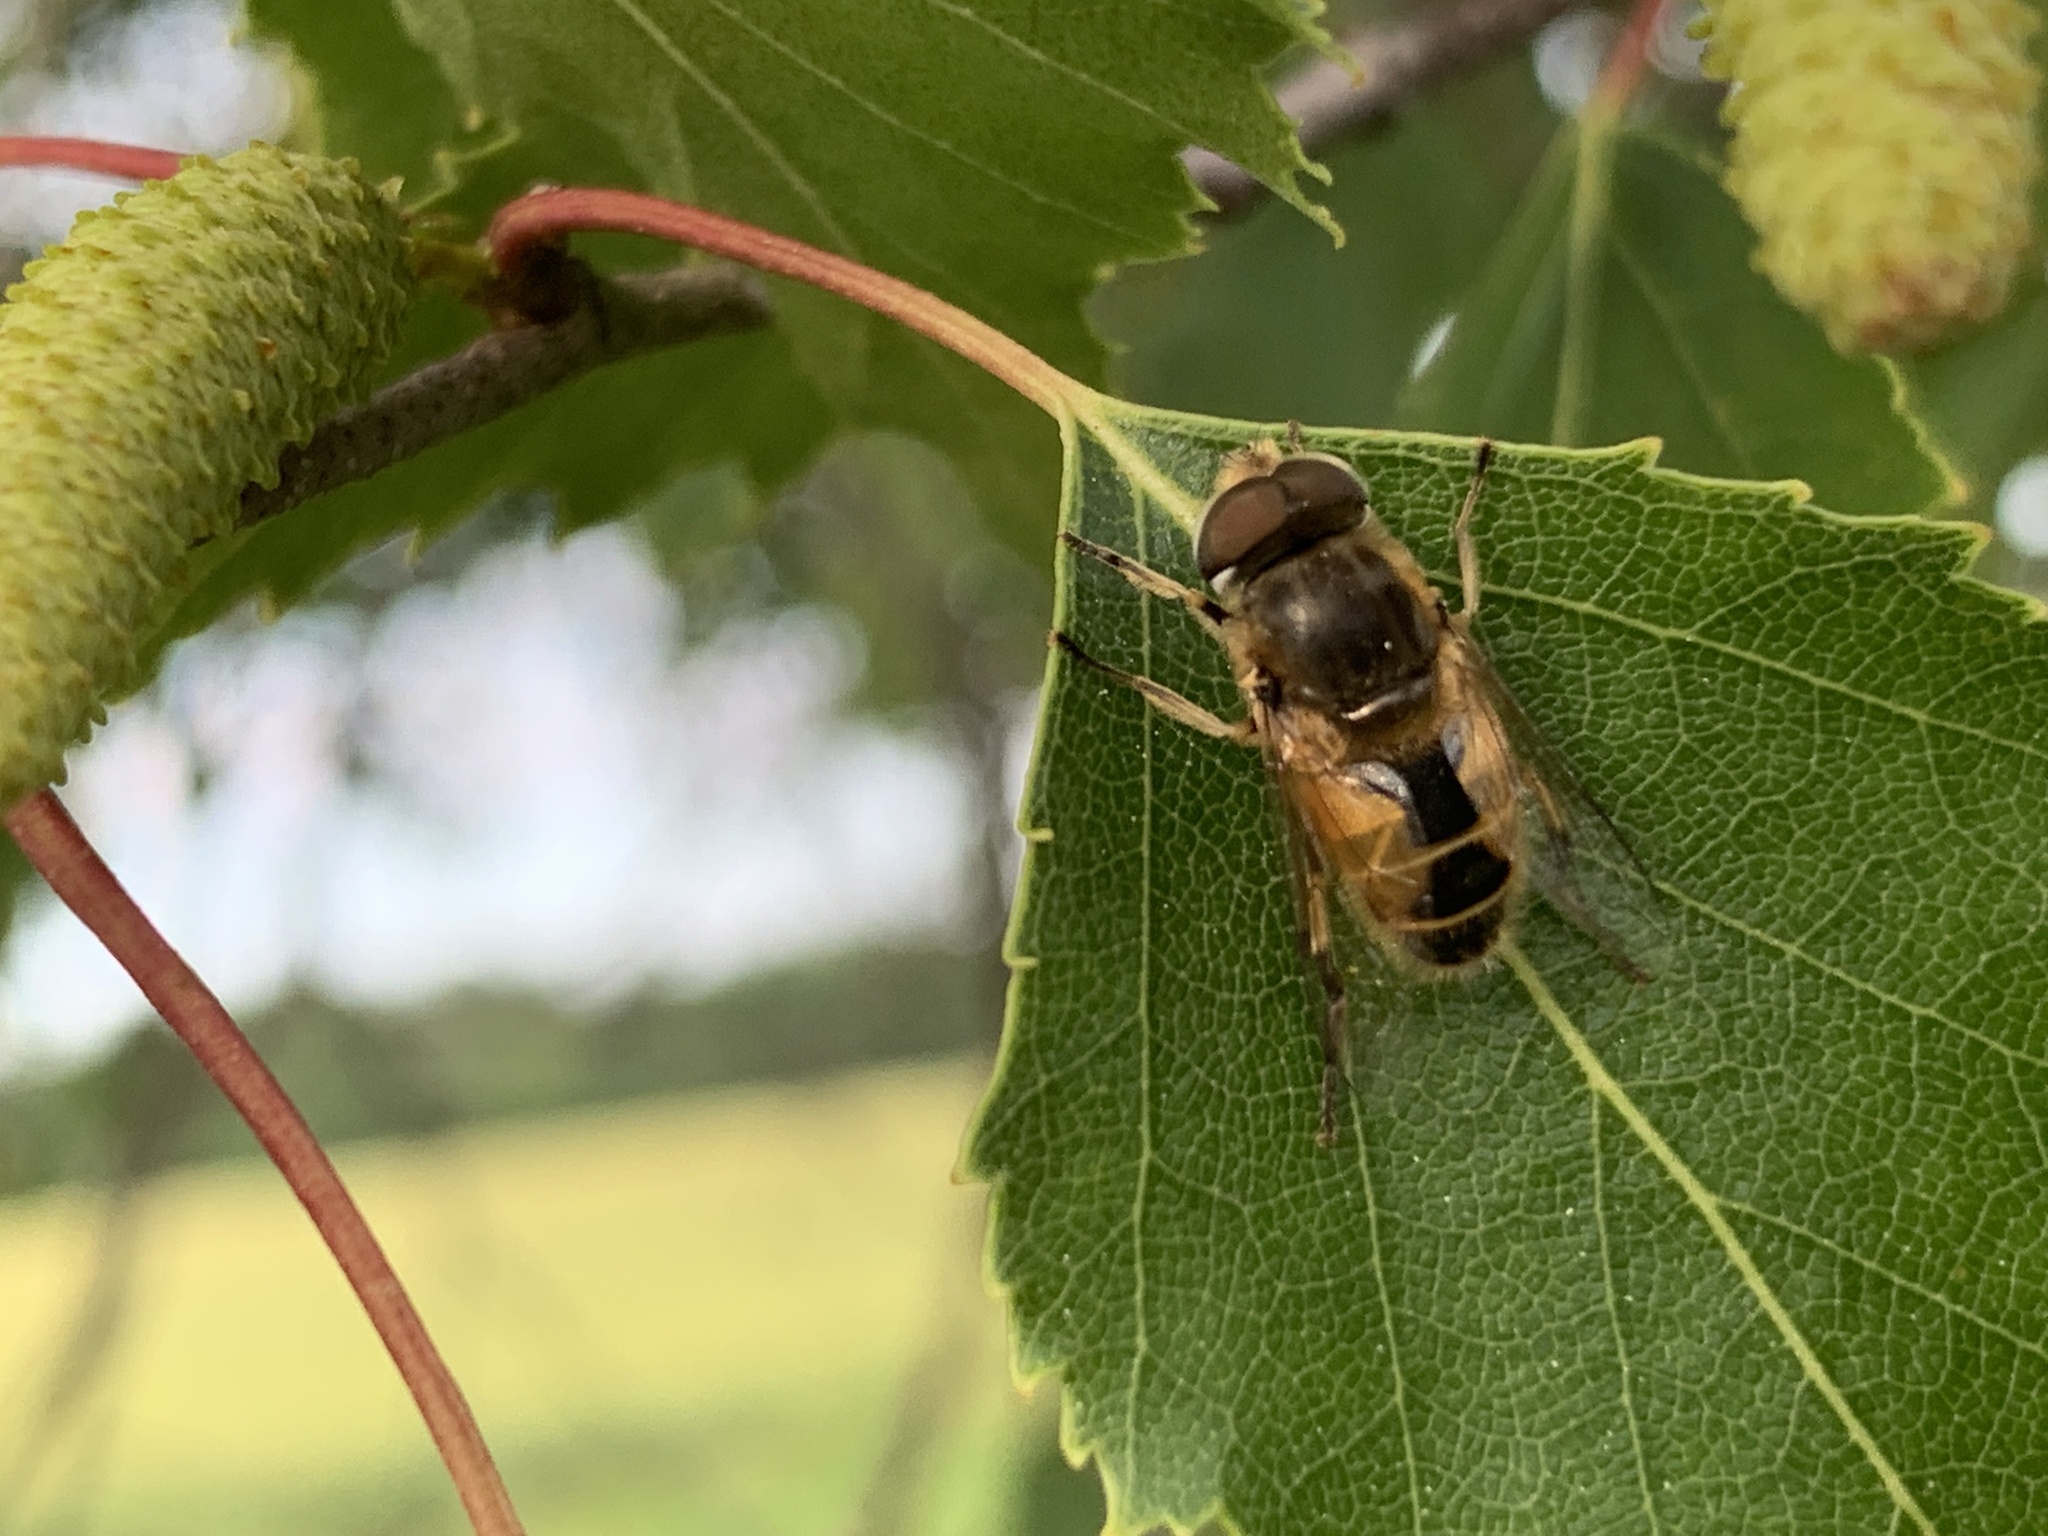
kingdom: Animalia
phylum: Arthropoda
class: Insecta
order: Diptera
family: Syrphidae
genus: Eristalis
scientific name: Eristalis arbustorum
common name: Hover fly
